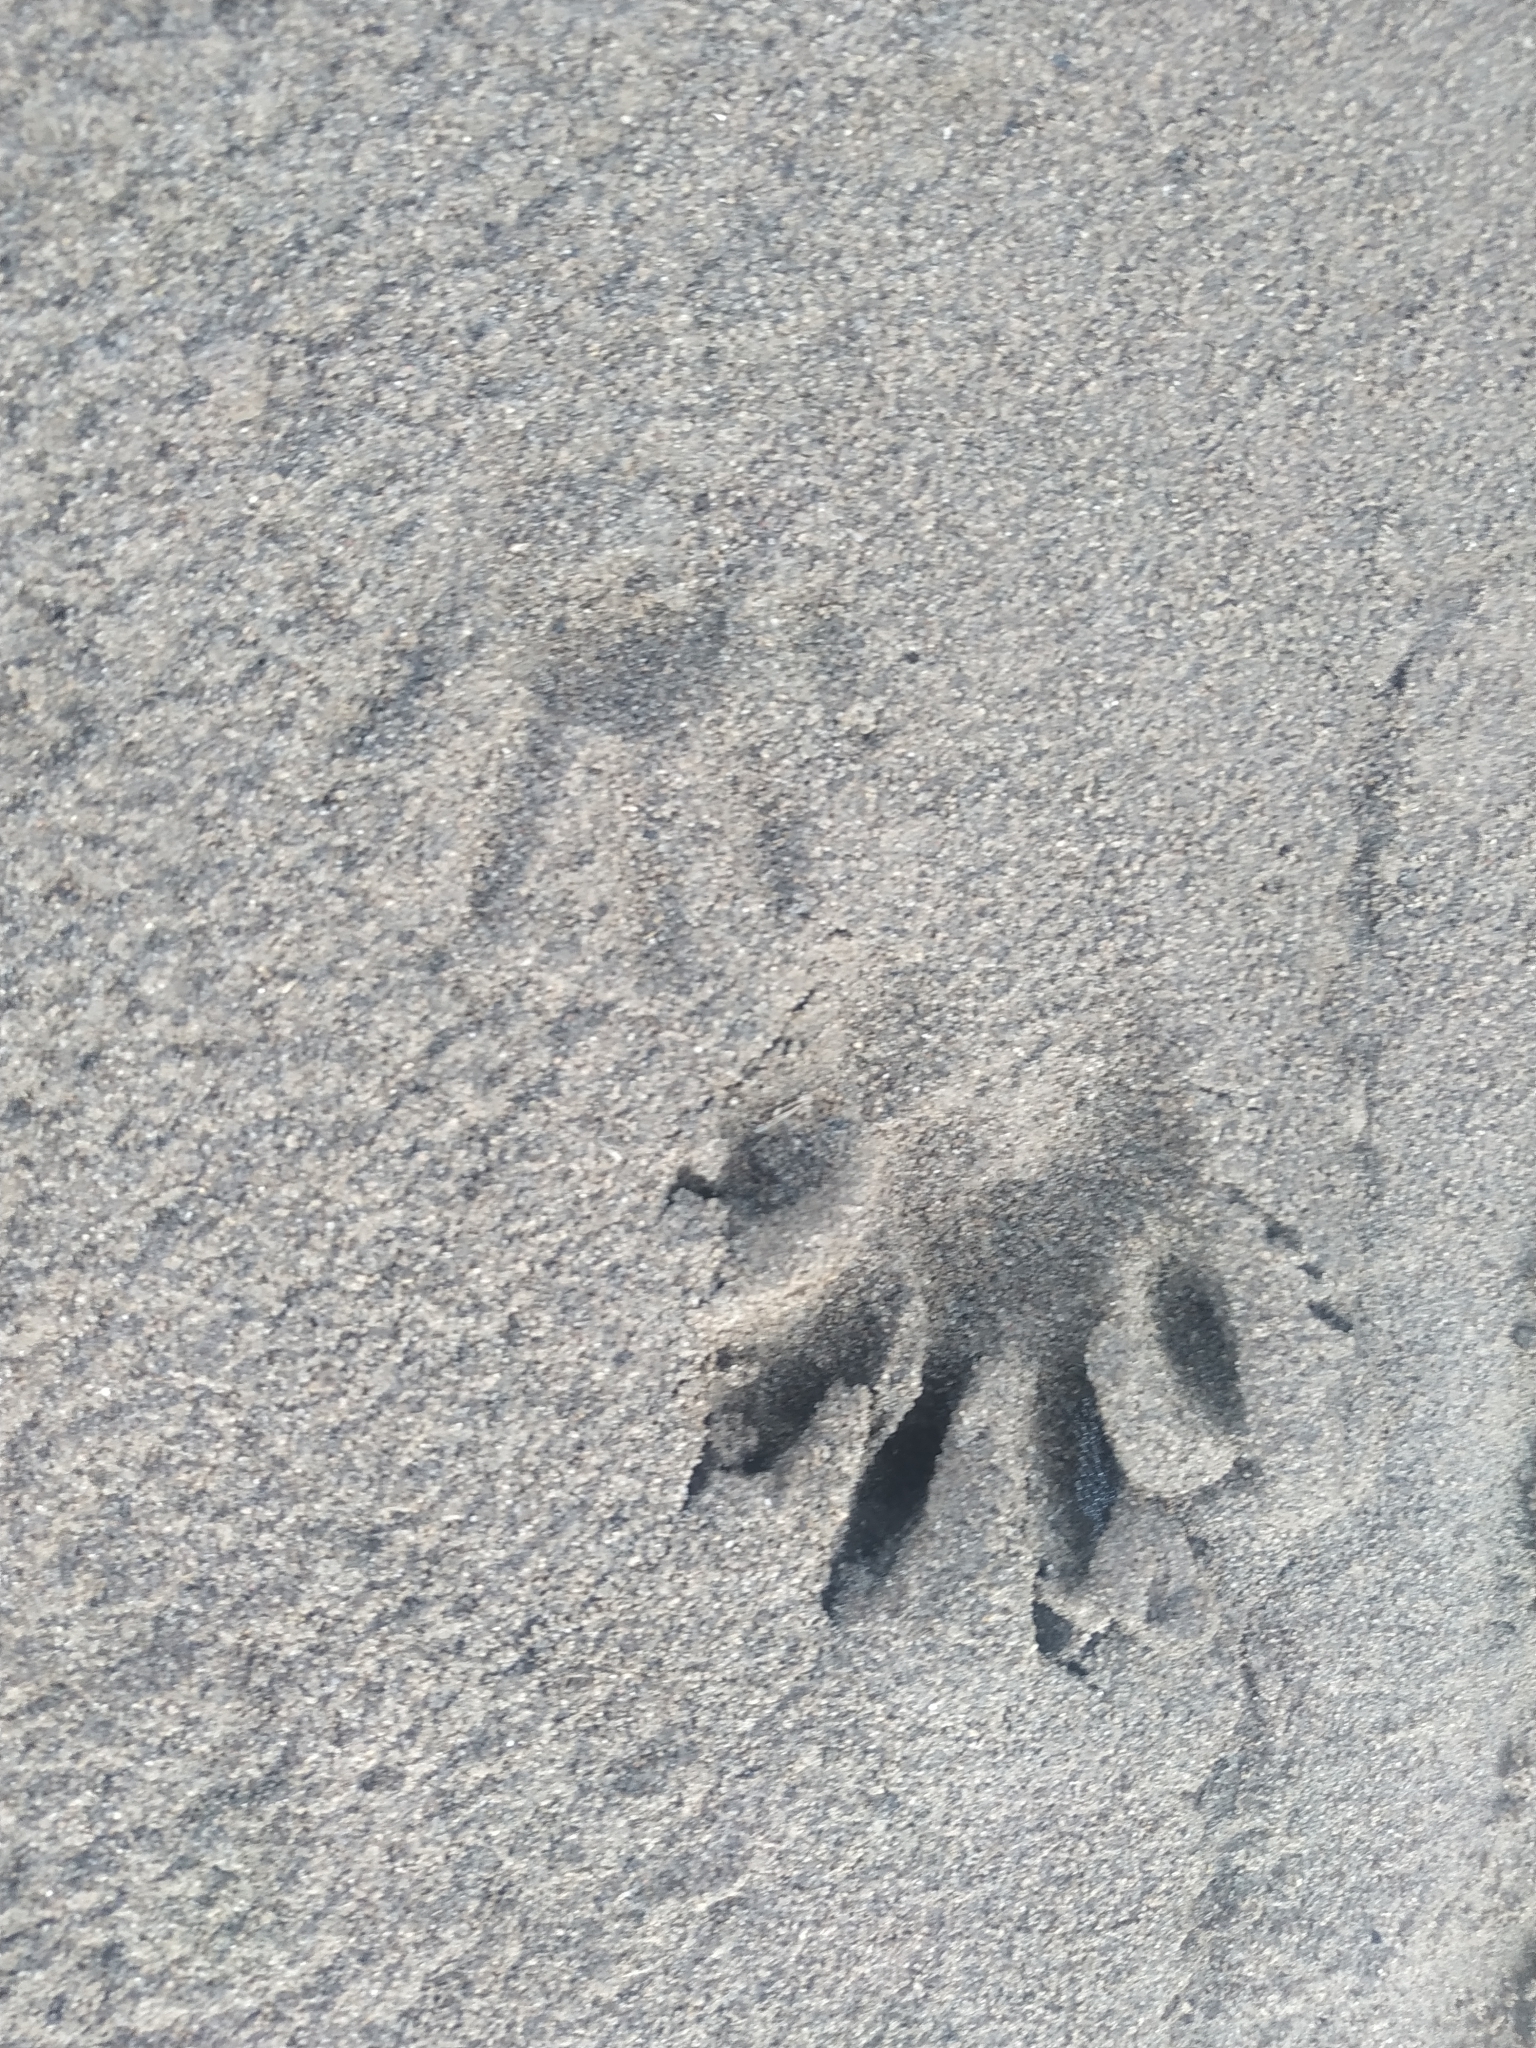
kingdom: Animalia
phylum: Chordata
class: Mammalia
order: Carnivora
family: Procyonidae
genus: Procyon
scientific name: Procyon cancrivorus
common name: Crab-eating raccoon
